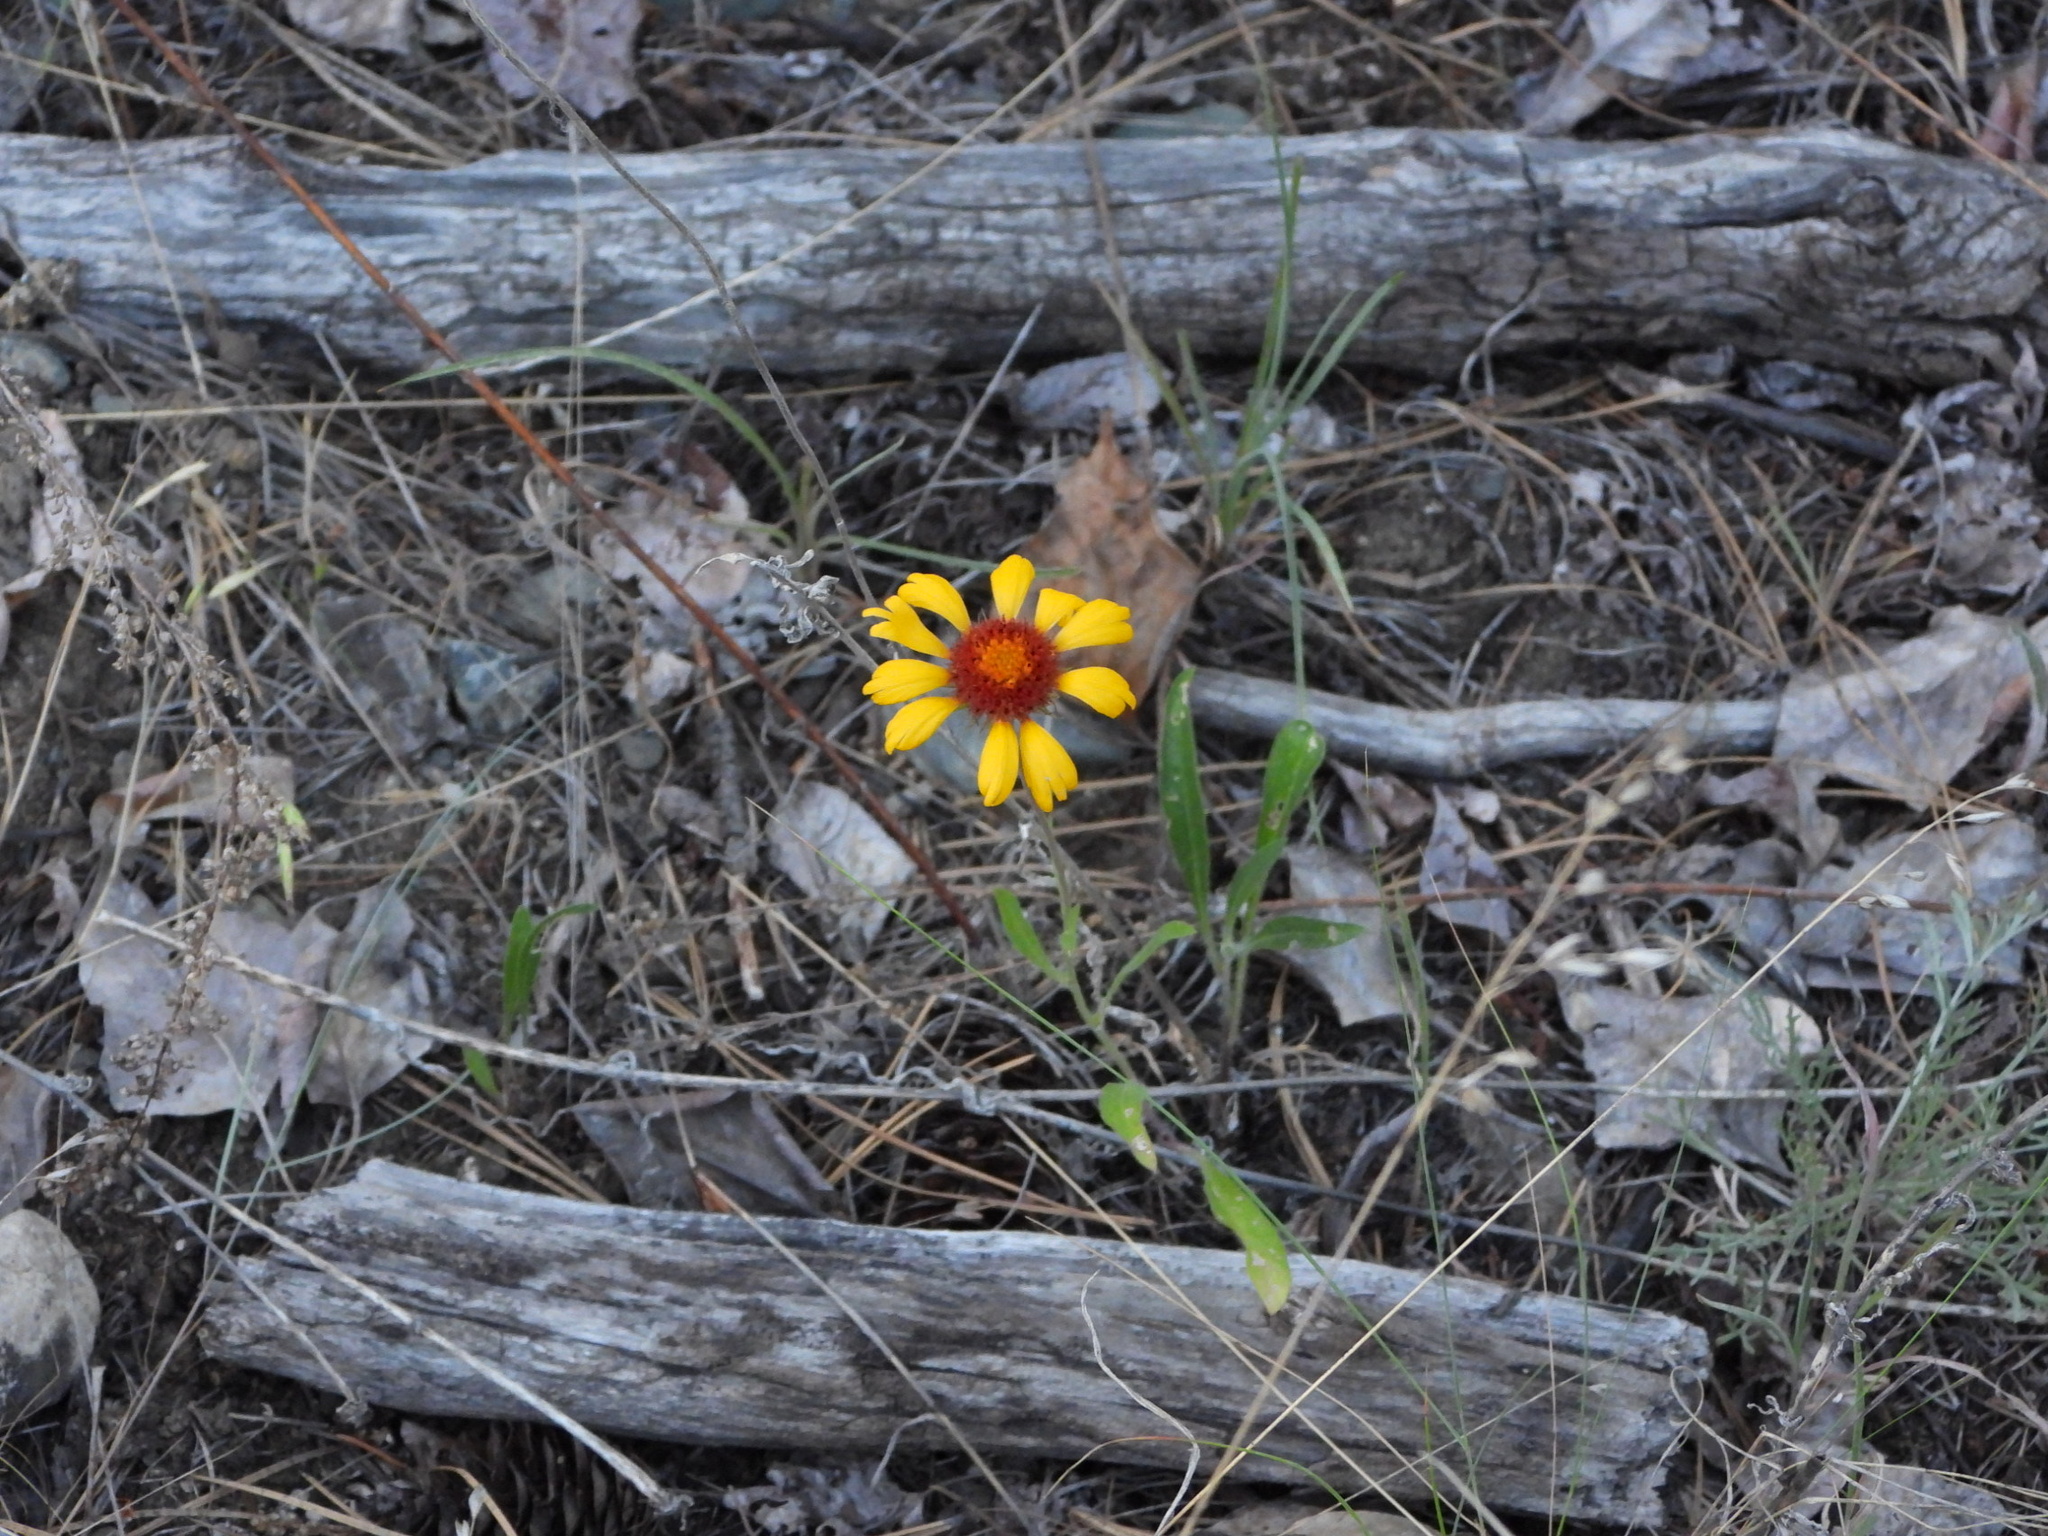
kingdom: Plantae
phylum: Tracheophyta
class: Magnoliopsida
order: Asterales
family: Asteraceae
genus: Gaillardia
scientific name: Gaillardia aristata
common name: Blanket-flower
